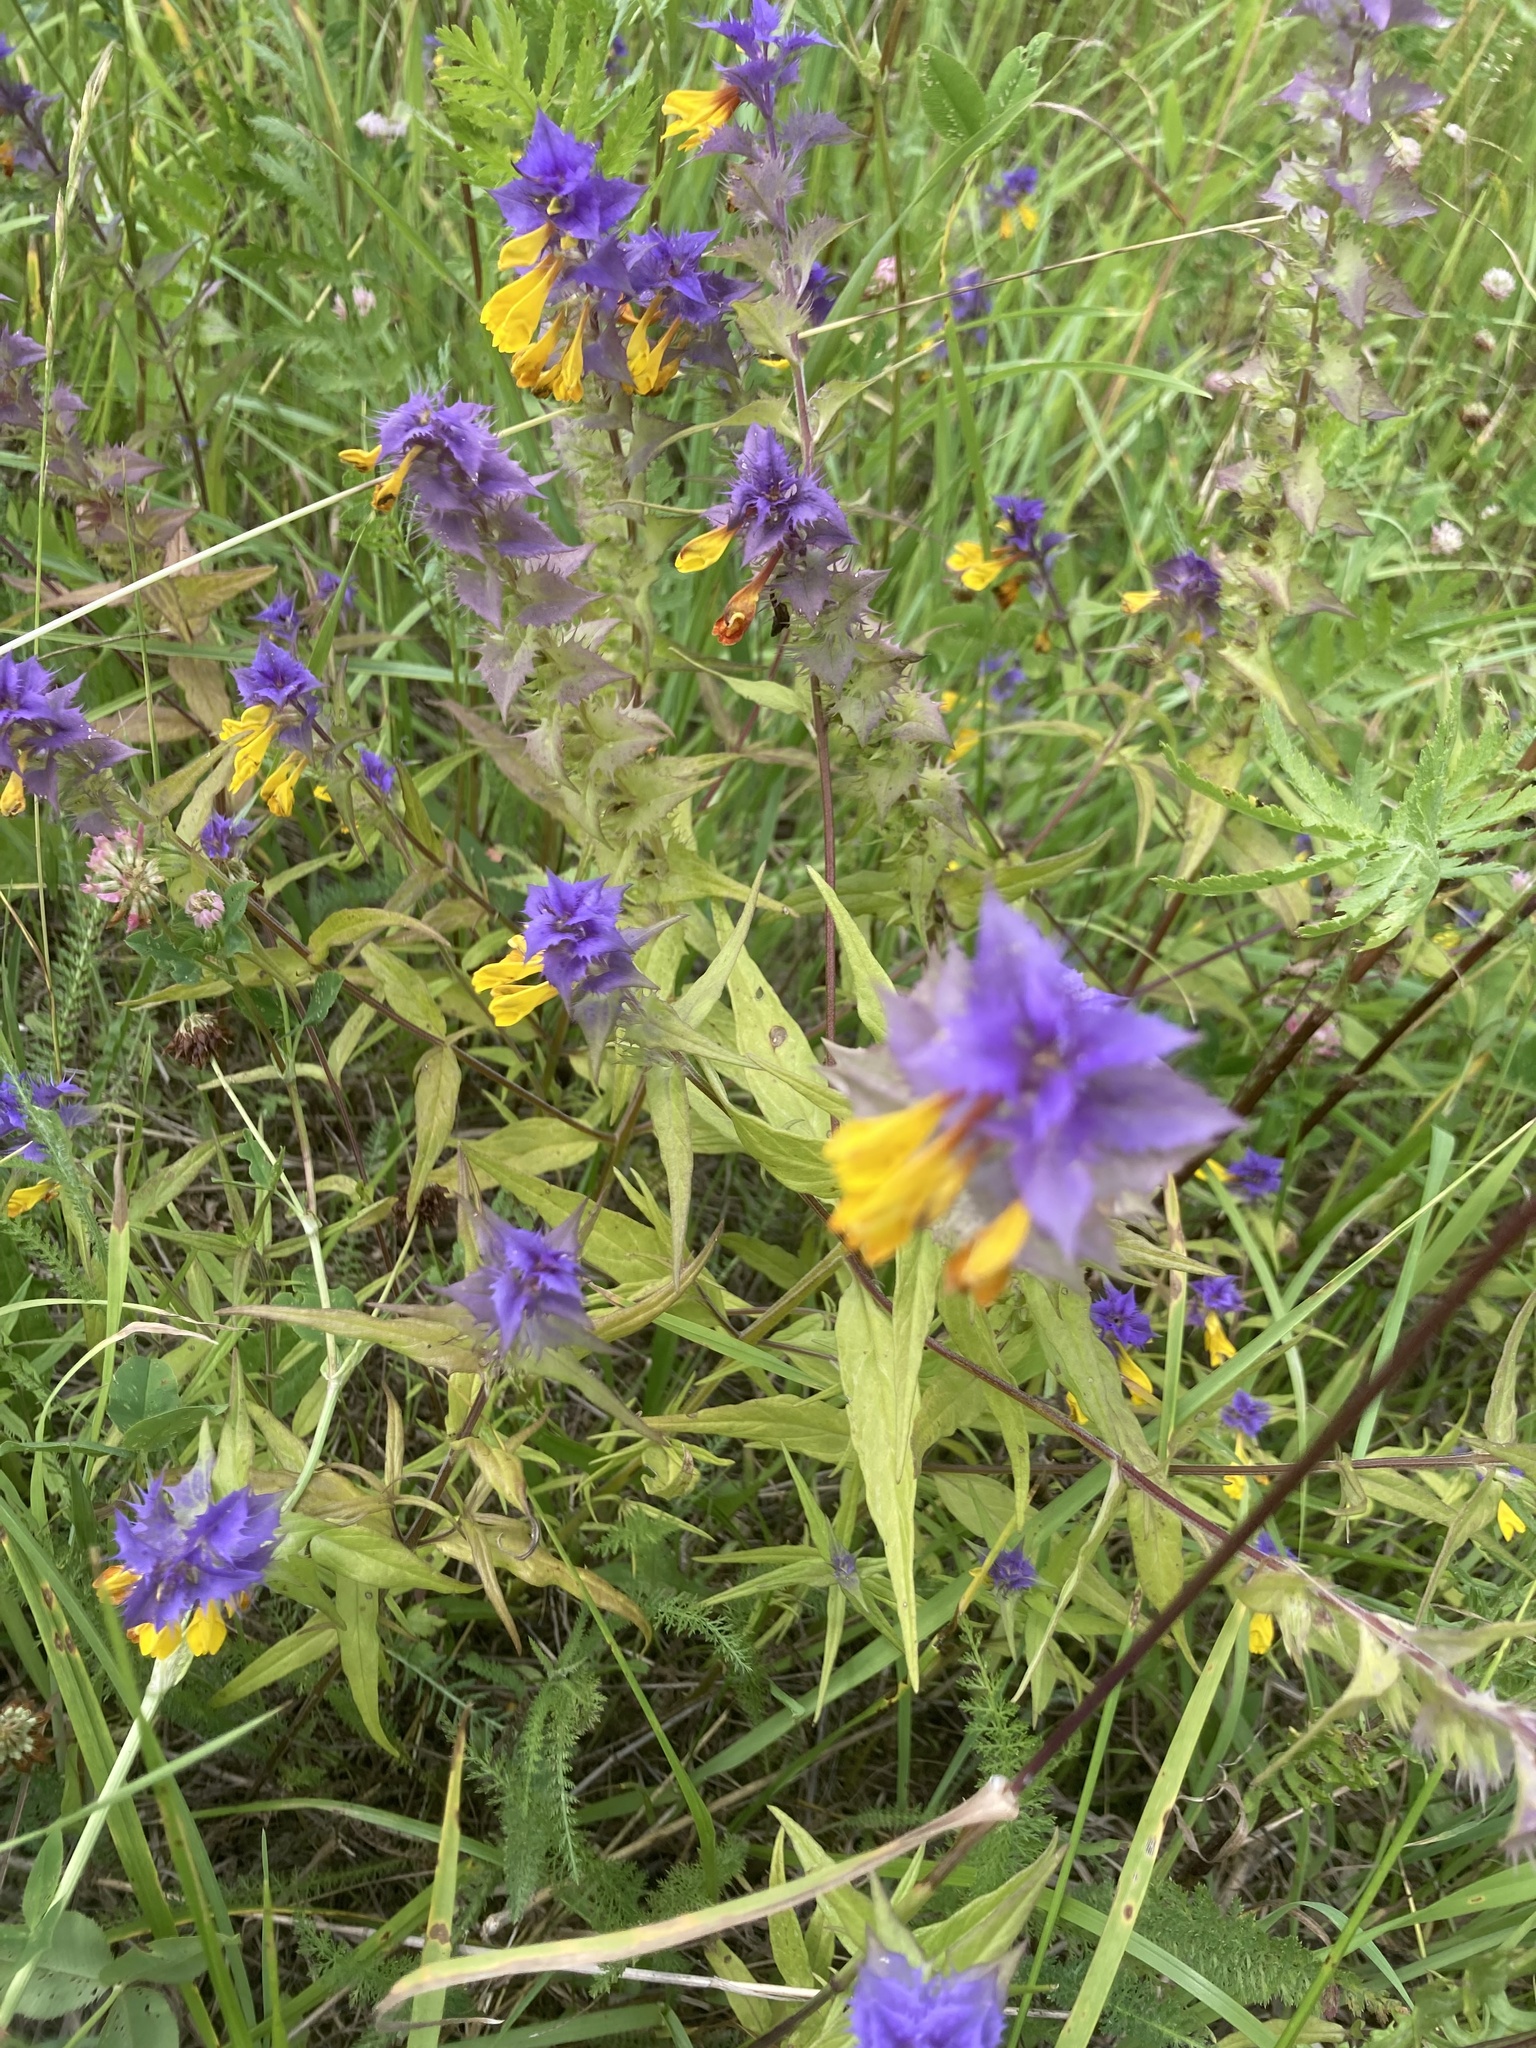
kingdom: Plantae
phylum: Tracheophyta
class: Magnoliopsida
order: Lamiales
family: Orobanchaceae
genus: Melampyrum
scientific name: Melampyrum nemorosum
